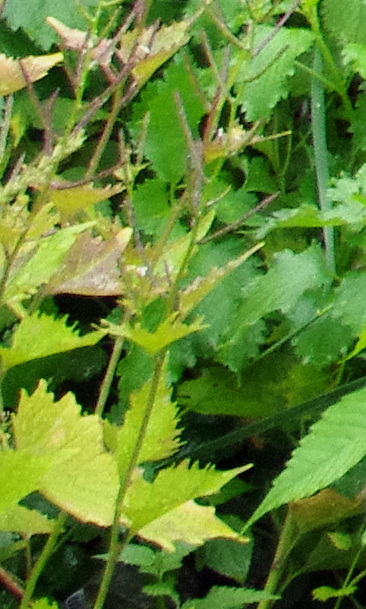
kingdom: Plantae
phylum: Tracheophyta
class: Magnoliopsida
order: Brassicales
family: Brassicaceae
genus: Alliaria
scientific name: Alliaria petiolata
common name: Garlic mustard
